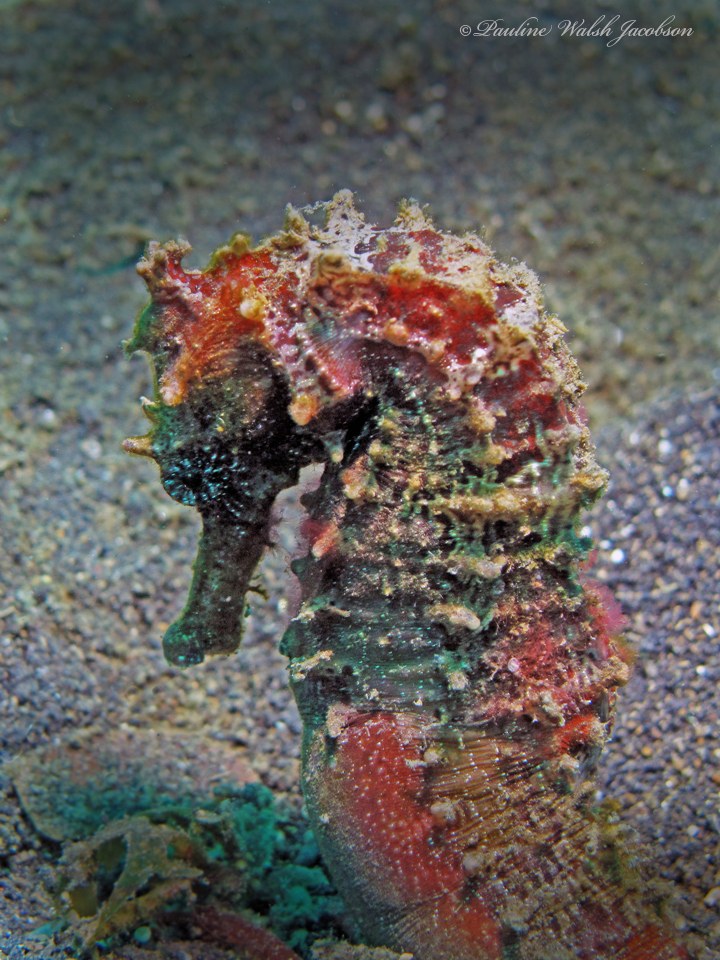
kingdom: Animalia
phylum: Chordata
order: Syngnathiformes
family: Syngnathidae
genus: Hippocampus
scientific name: Hippocampus spinosissimus
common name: Hedgehog seahorse
